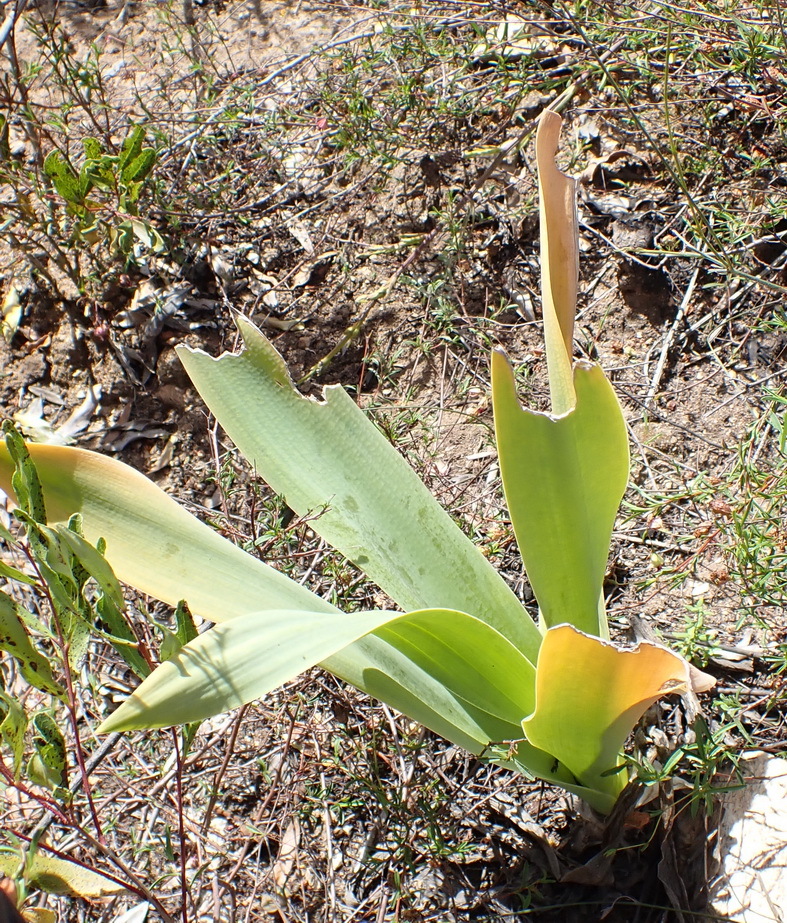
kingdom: Plantae
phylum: Tracheophyta
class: Liliopsida
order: Asparagales
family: Asparagaceae
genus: Drimia
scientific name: Drimia capensis
